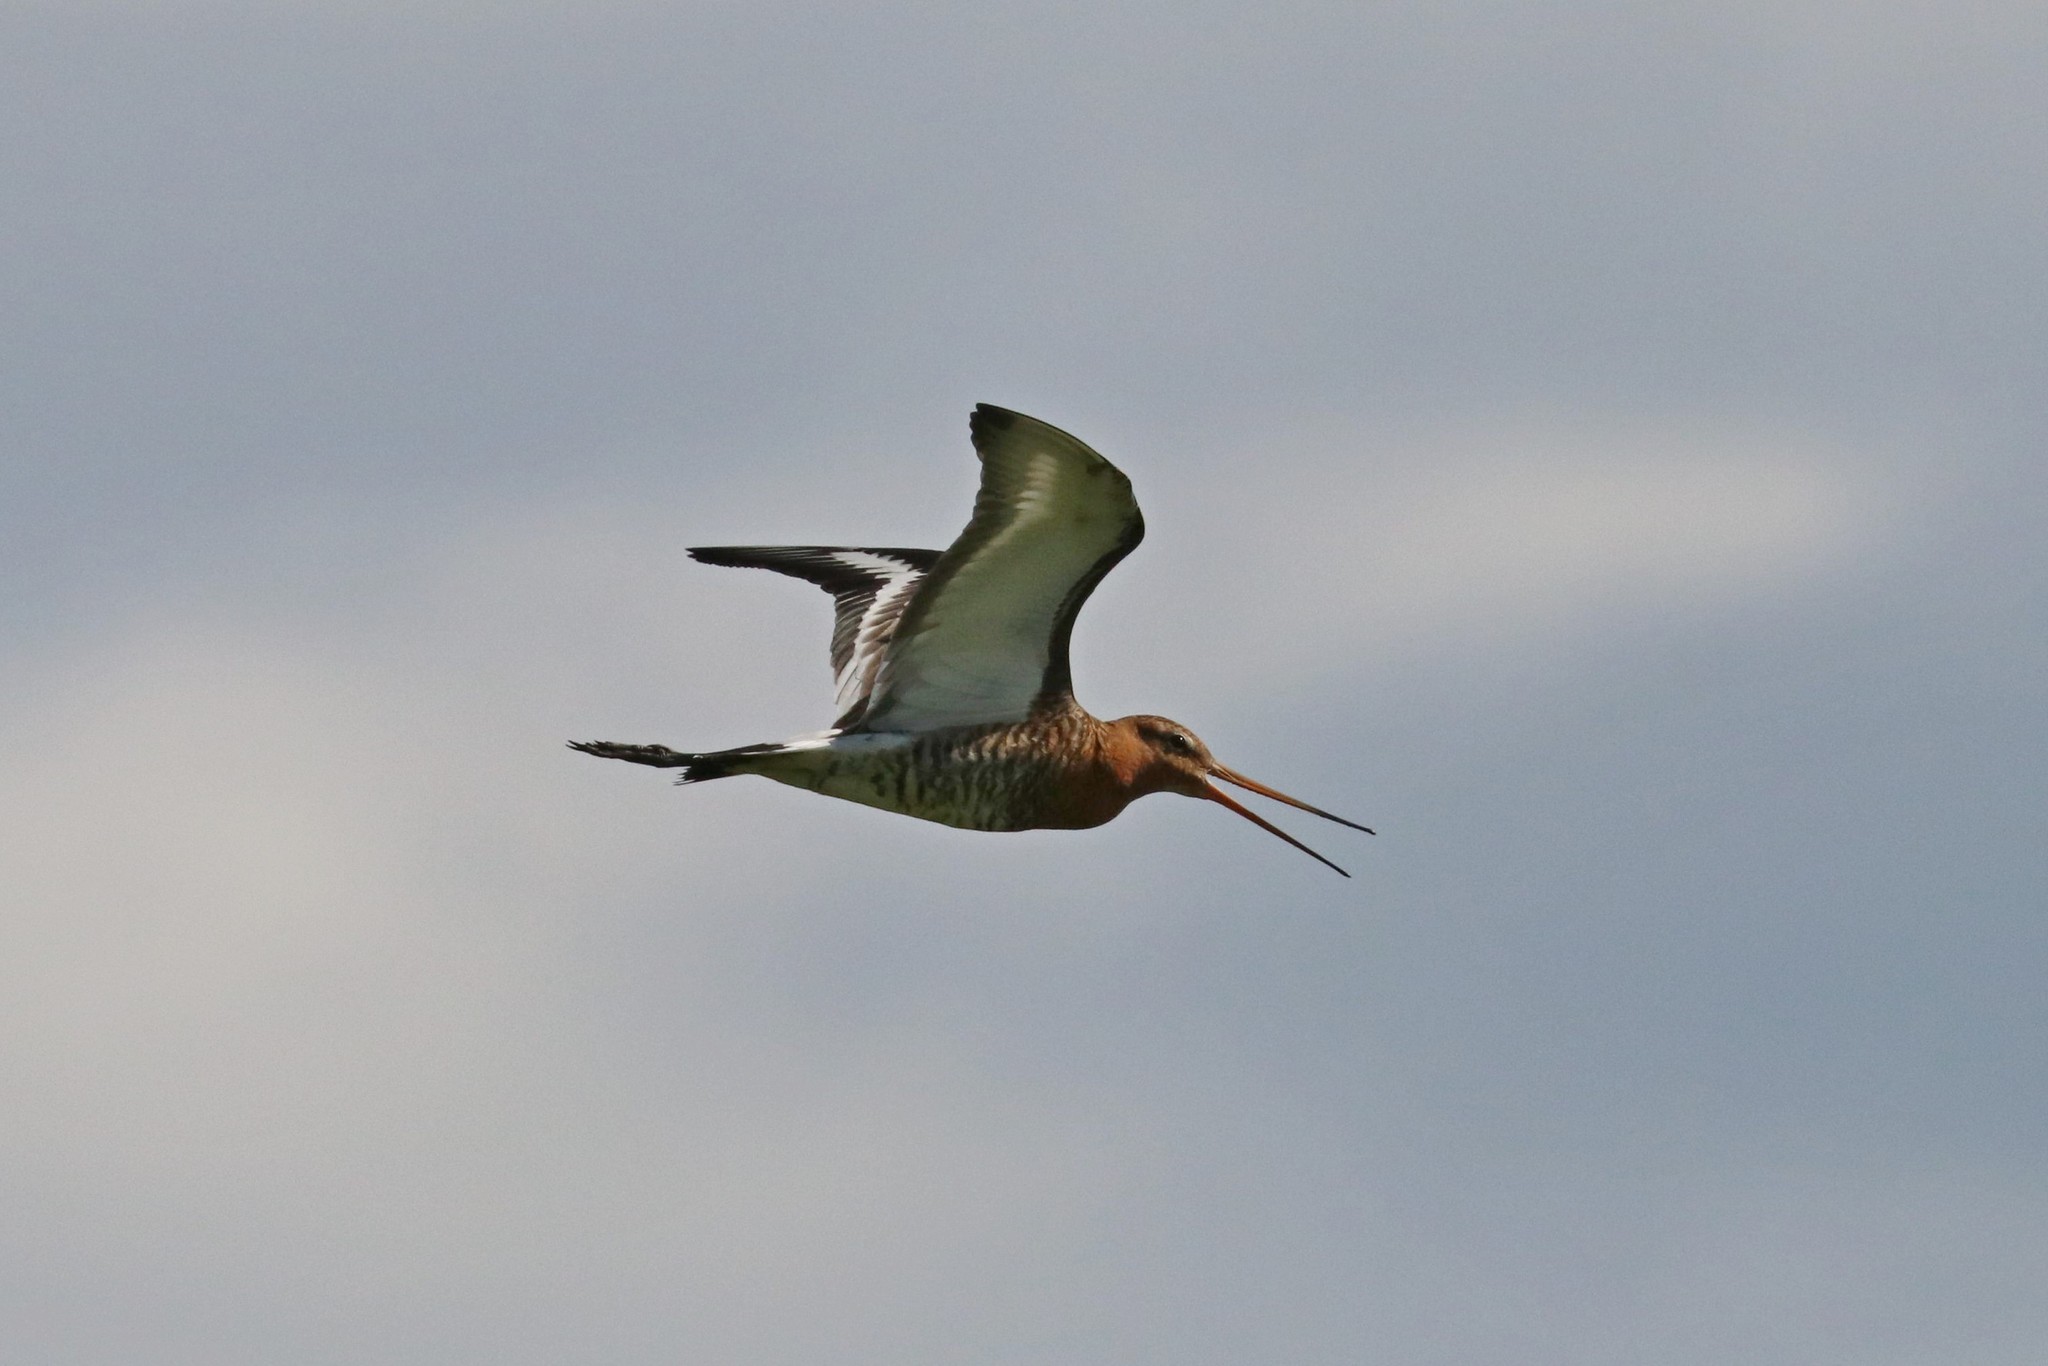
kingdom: Animalia
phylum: Chordata
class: Aves
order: Charadriiformes
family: Scolopacidae
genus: Limosa
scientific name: Limosa limosa
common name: Black-tailed godwit
